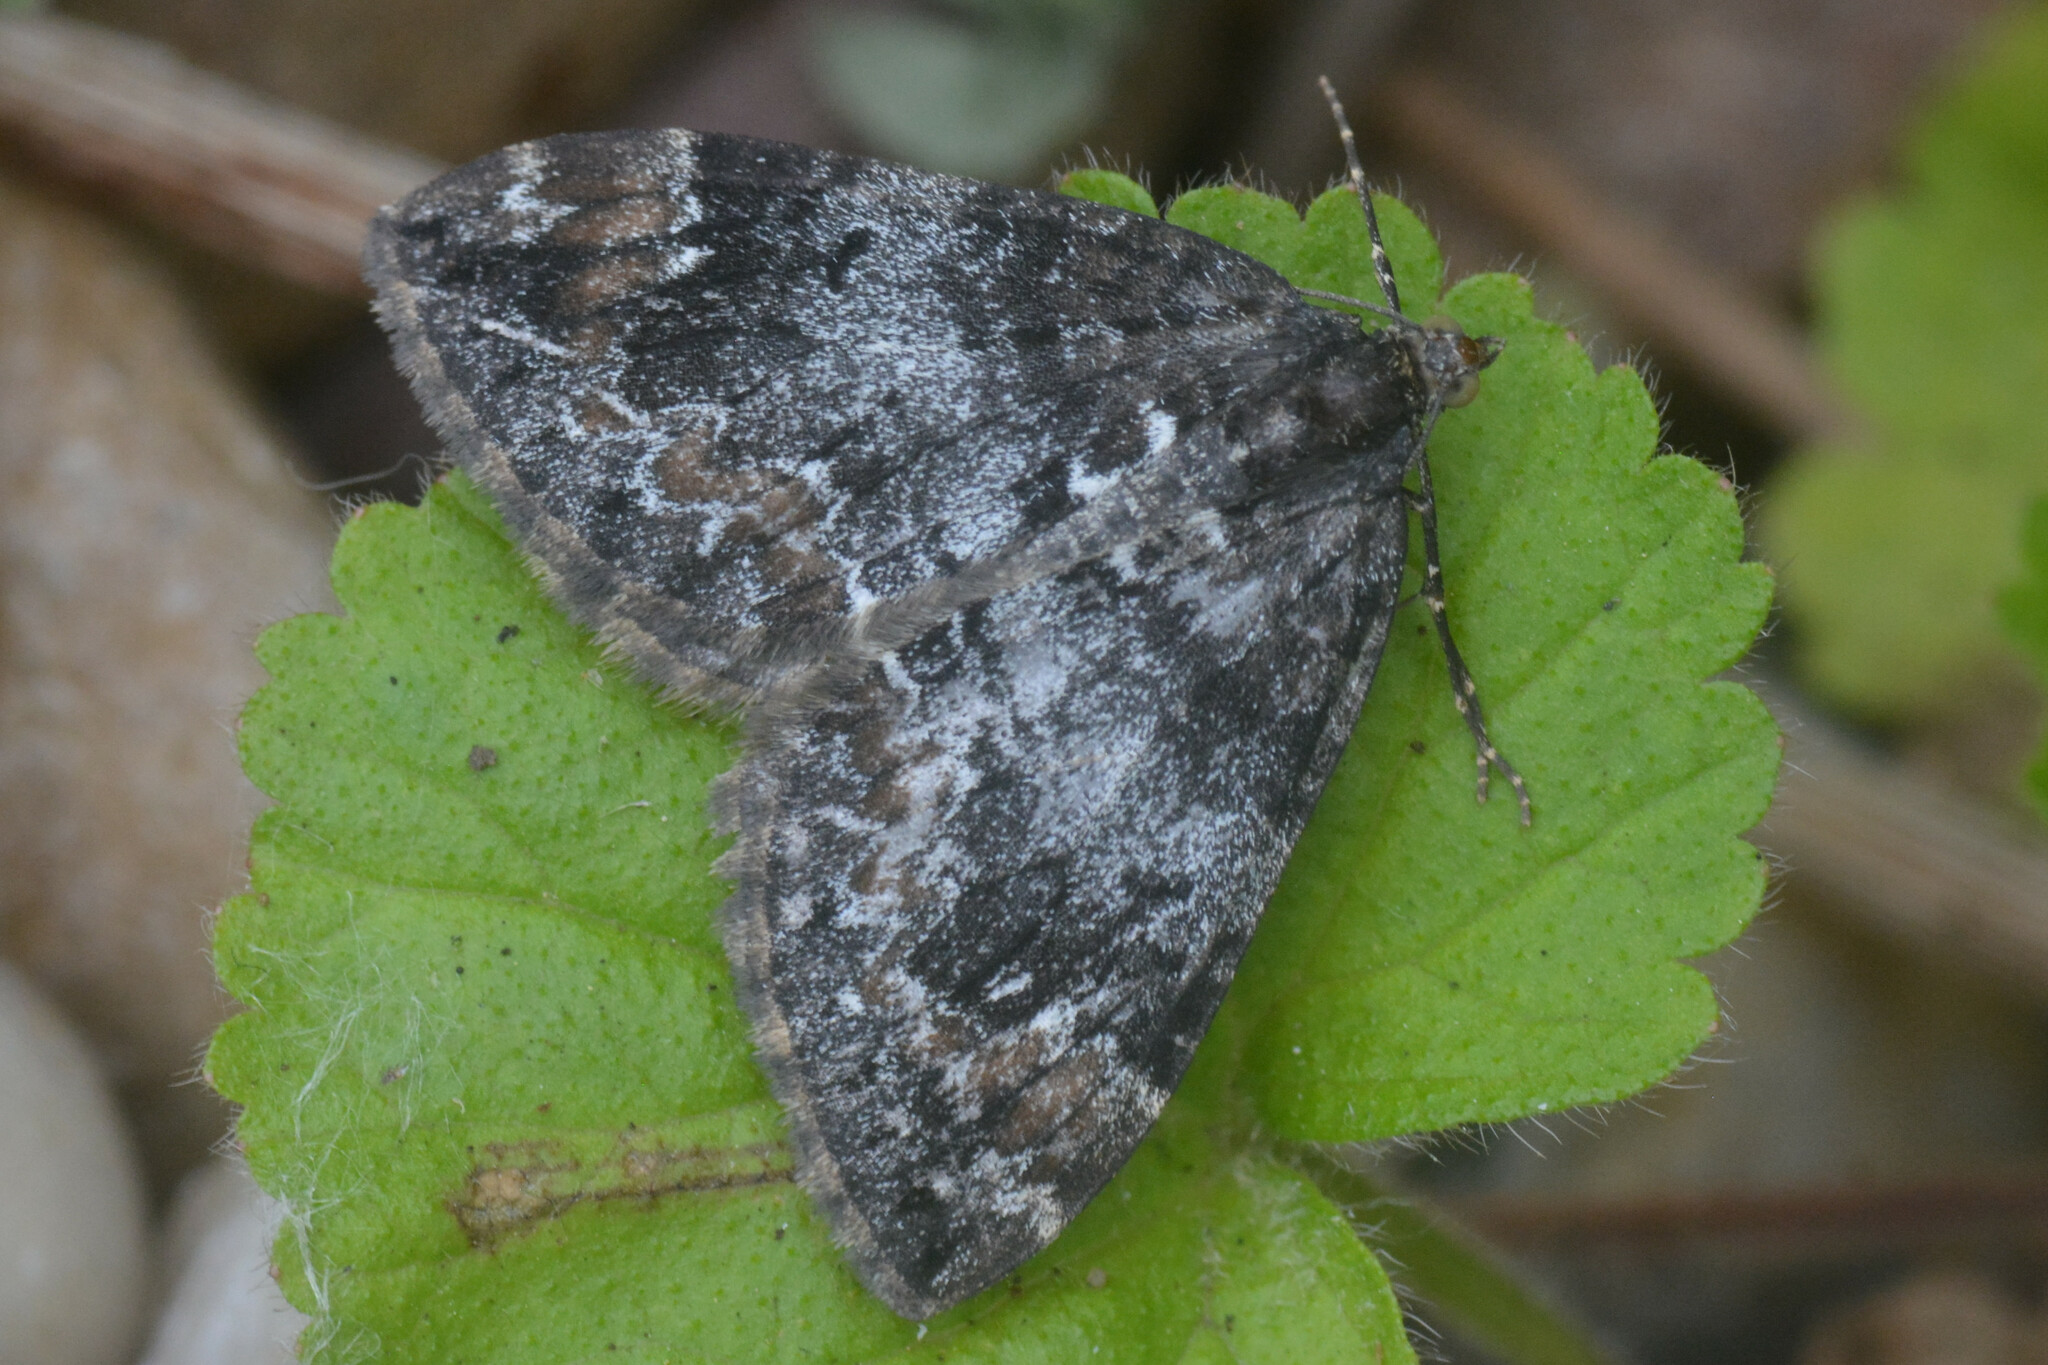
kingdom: Animalia
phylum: Arthropoda
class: Insecta
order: Lepidoptera
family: Geometridae
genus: Dysstroma
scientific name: Dysstroma truncata
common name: Common marbled carpet
